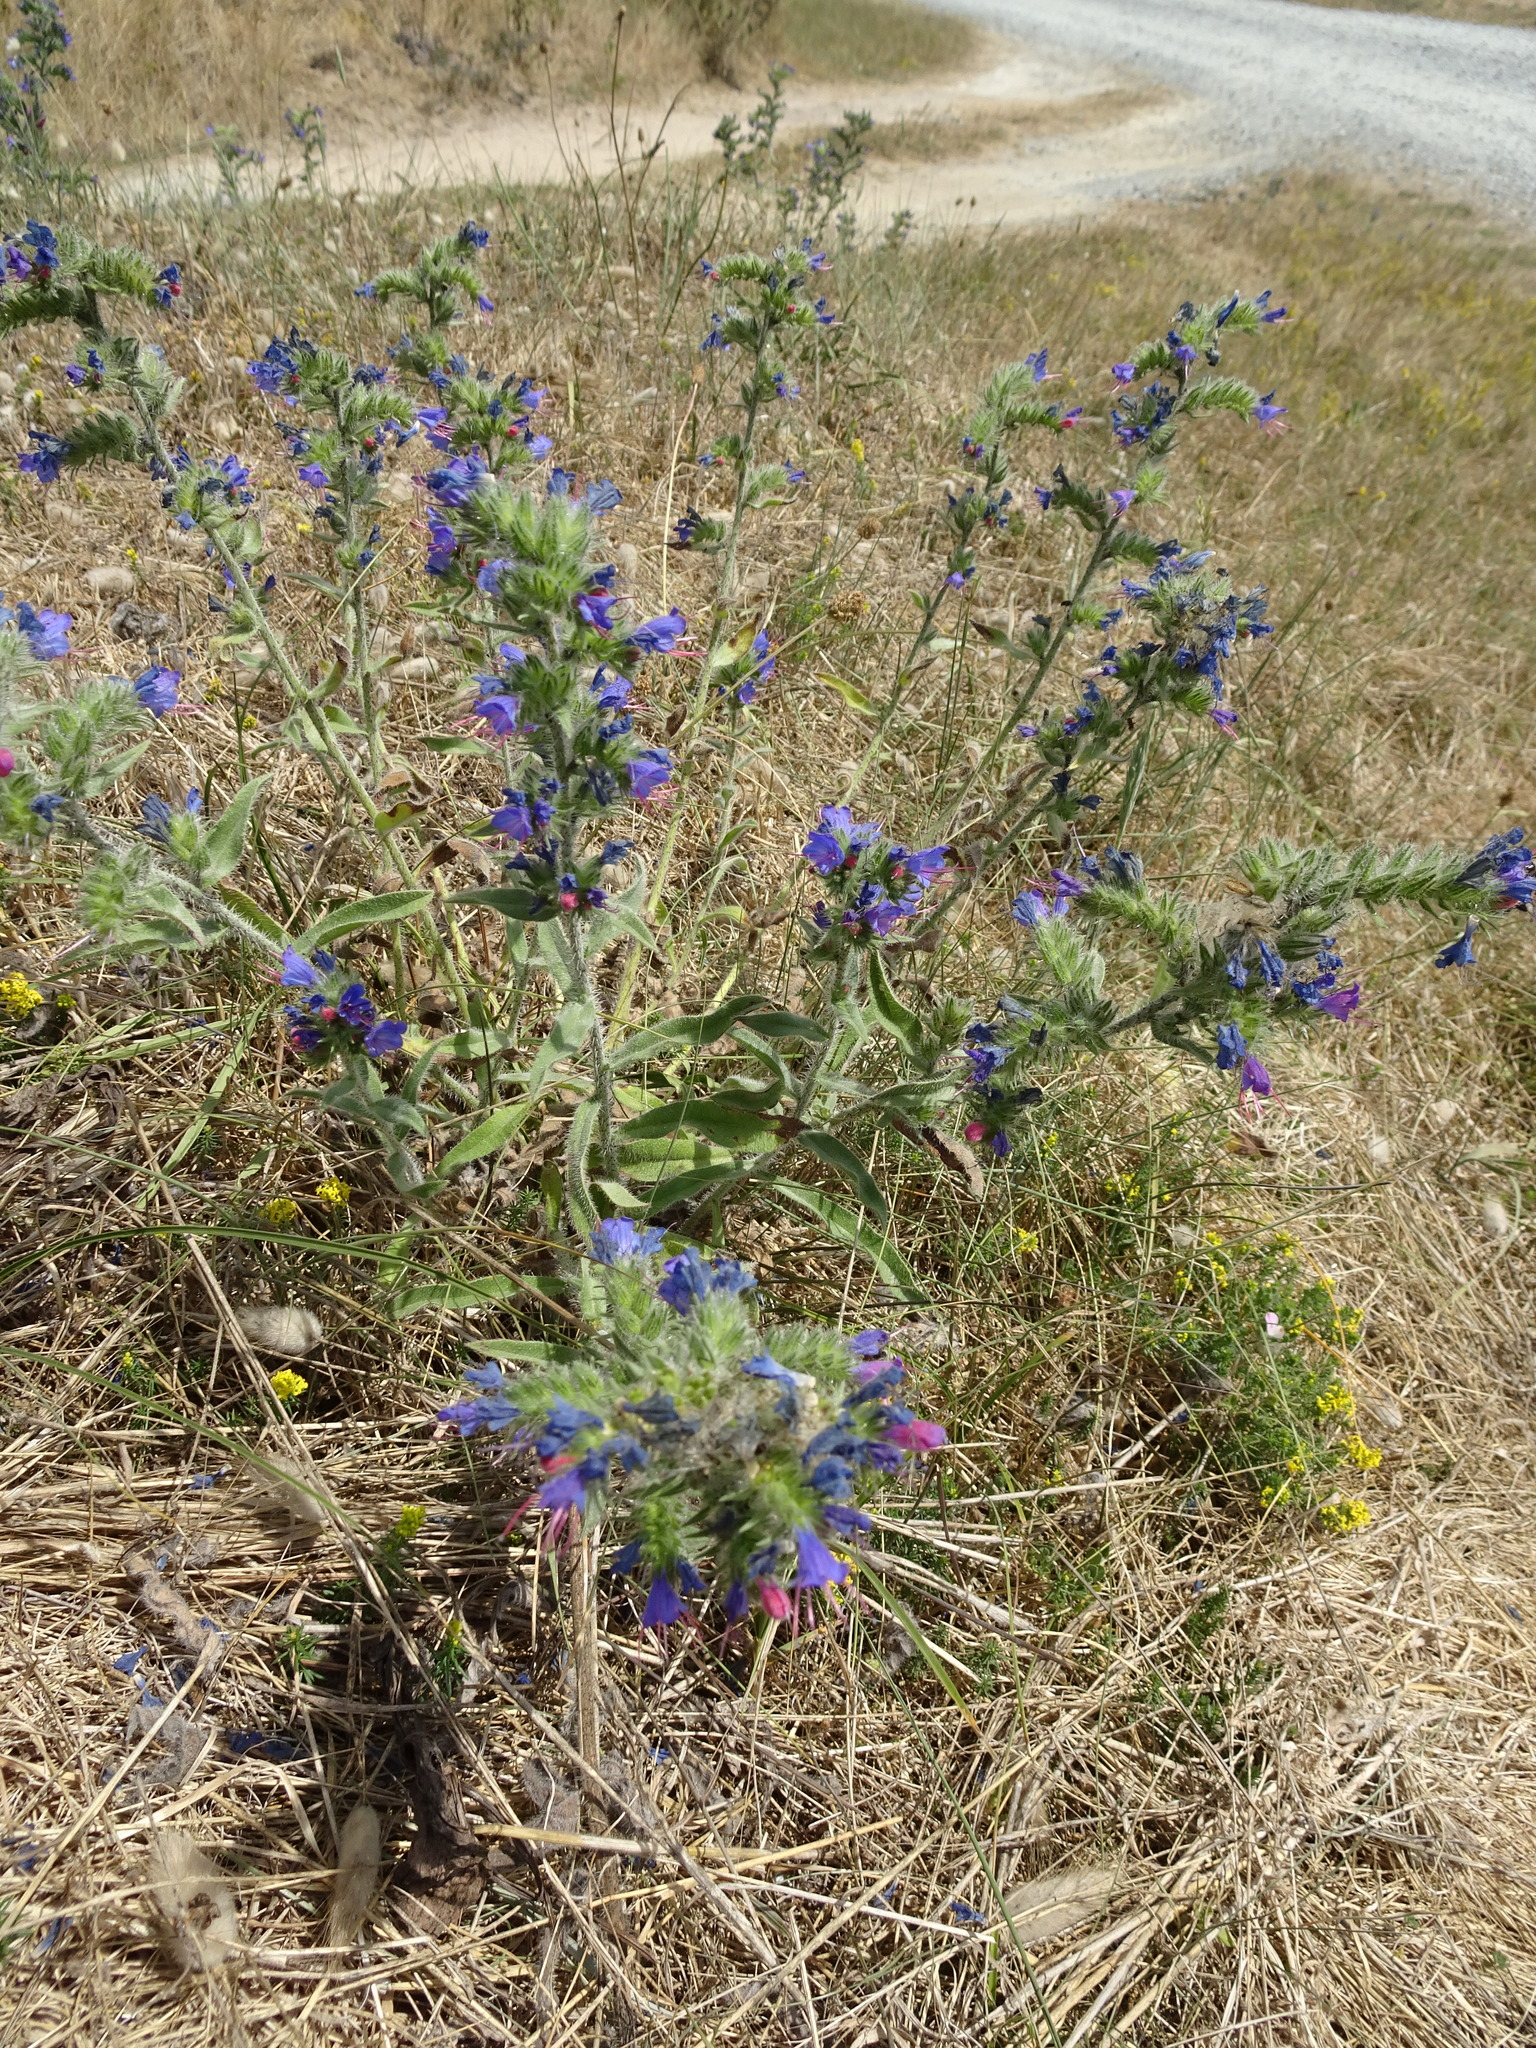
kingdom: Plantae
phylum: Tracheophyta
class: Magnoliopsida
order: Boraginales
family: Boraginaceae
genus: Echium
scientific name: Echium vulgare
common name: Common viper's bugloss
